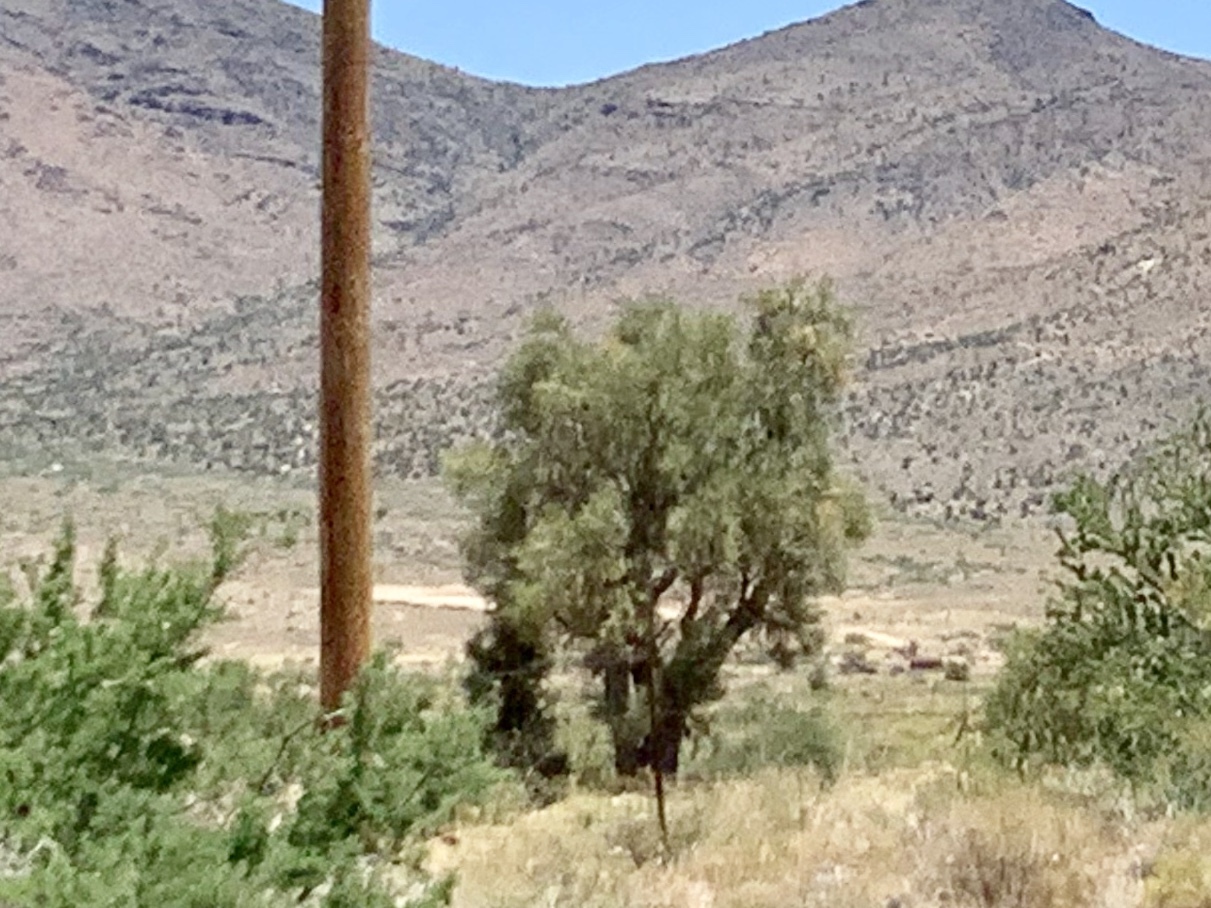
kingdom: Plantae
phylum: Tracheophyta
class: Magnoliopsida
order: Celastrales
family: Celastraceae
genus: Canotia
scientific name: Canotia holacantha
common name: Crucifixion thorns
